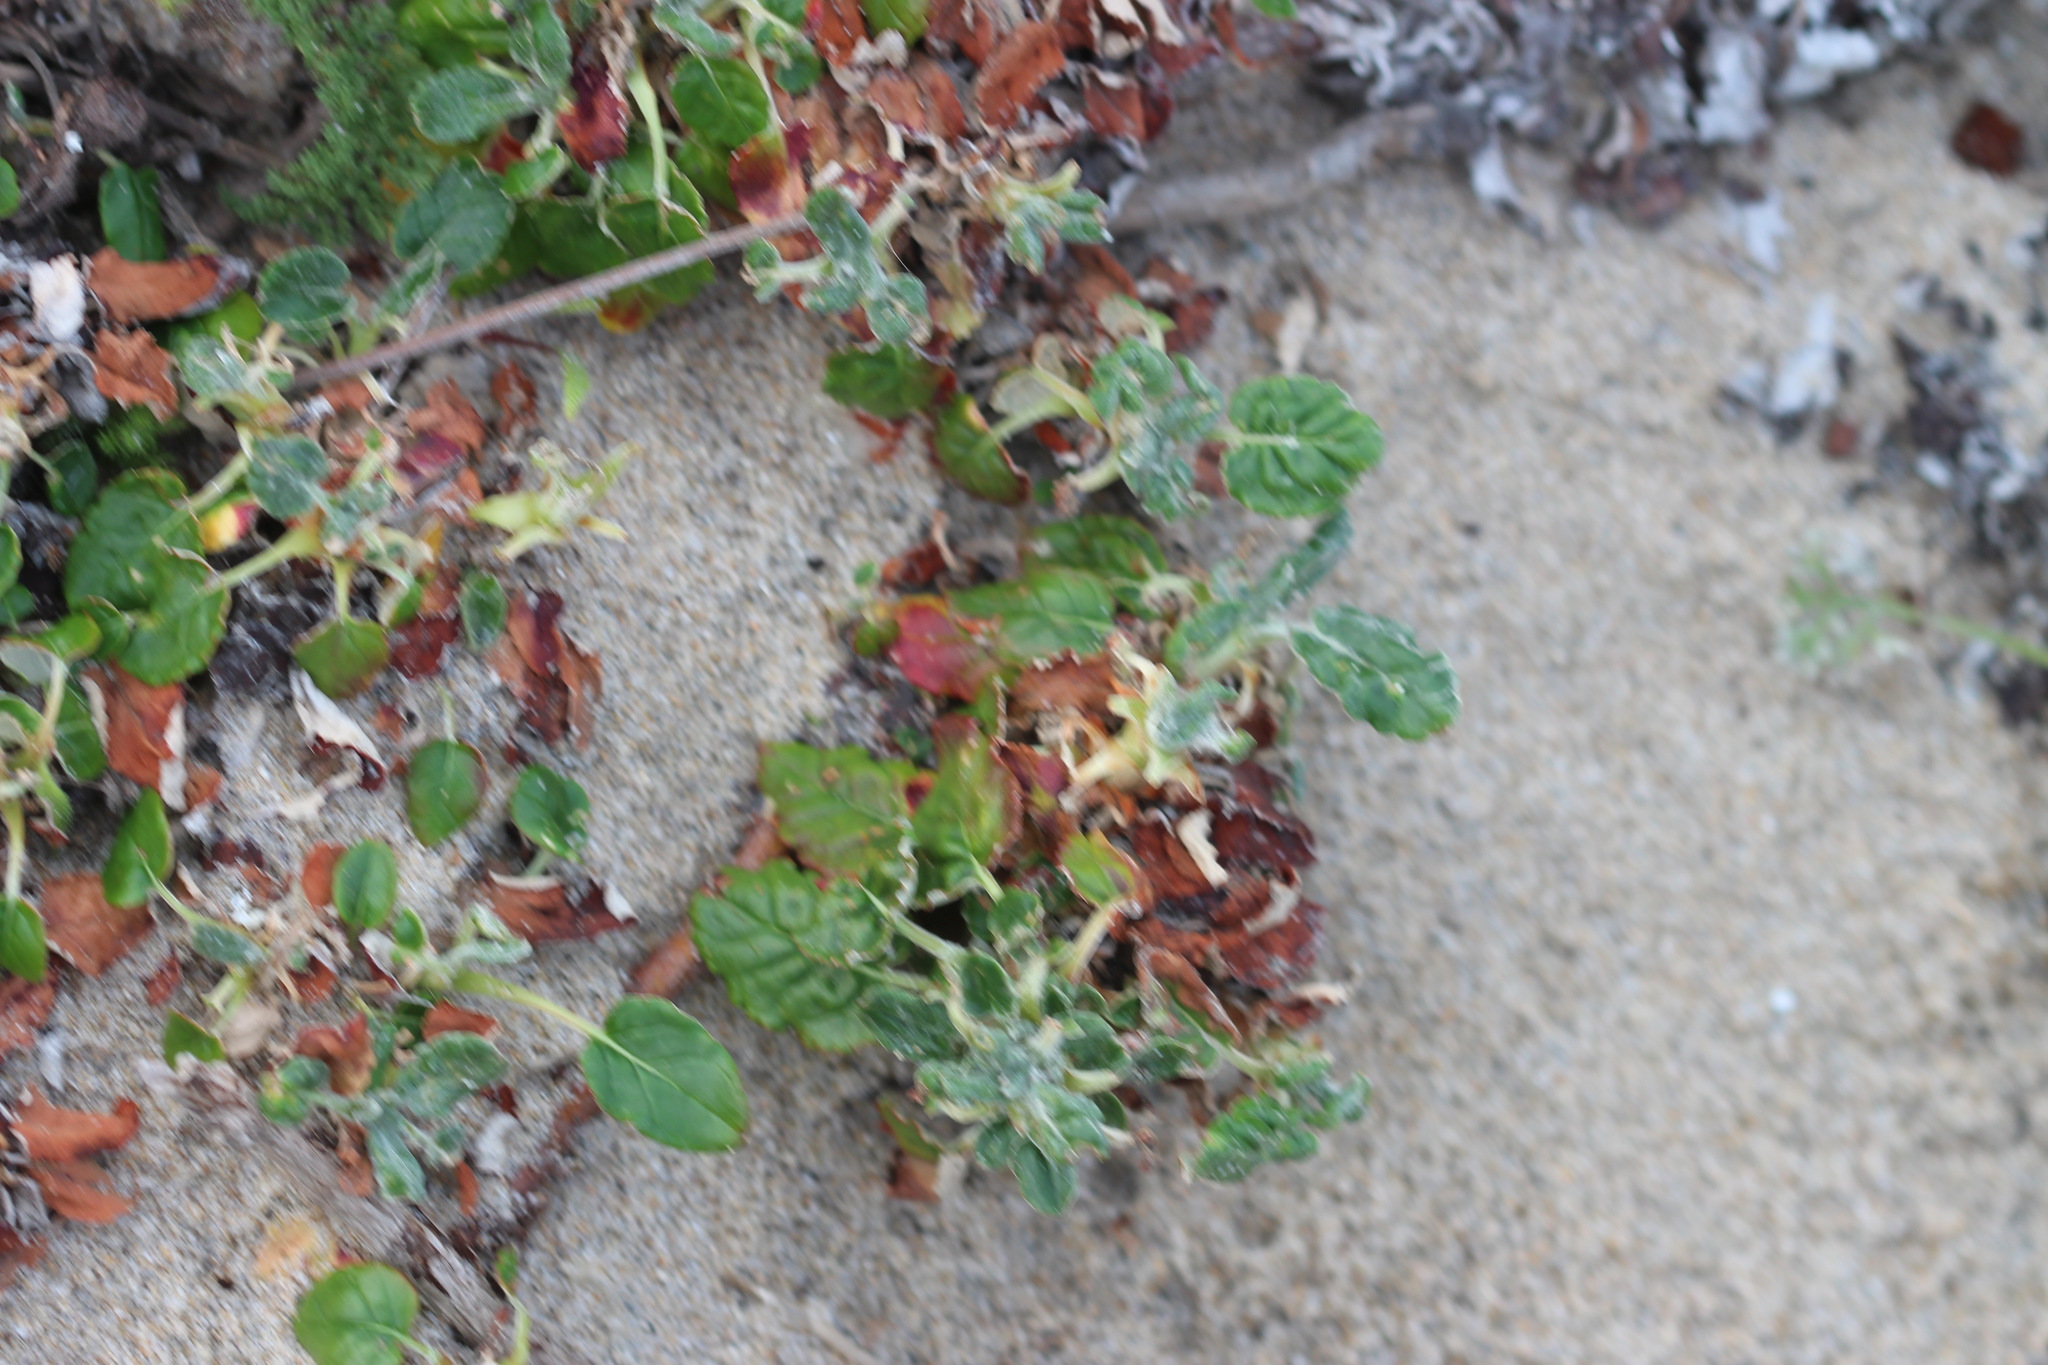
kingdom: Plantae
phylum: Tracheophyta
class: Magnoliopsida
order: Caryophyllales
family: Polygonaceae
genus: Eriogonum
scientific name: Eriogonum latifolium
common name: Seaside wild buckwheat
